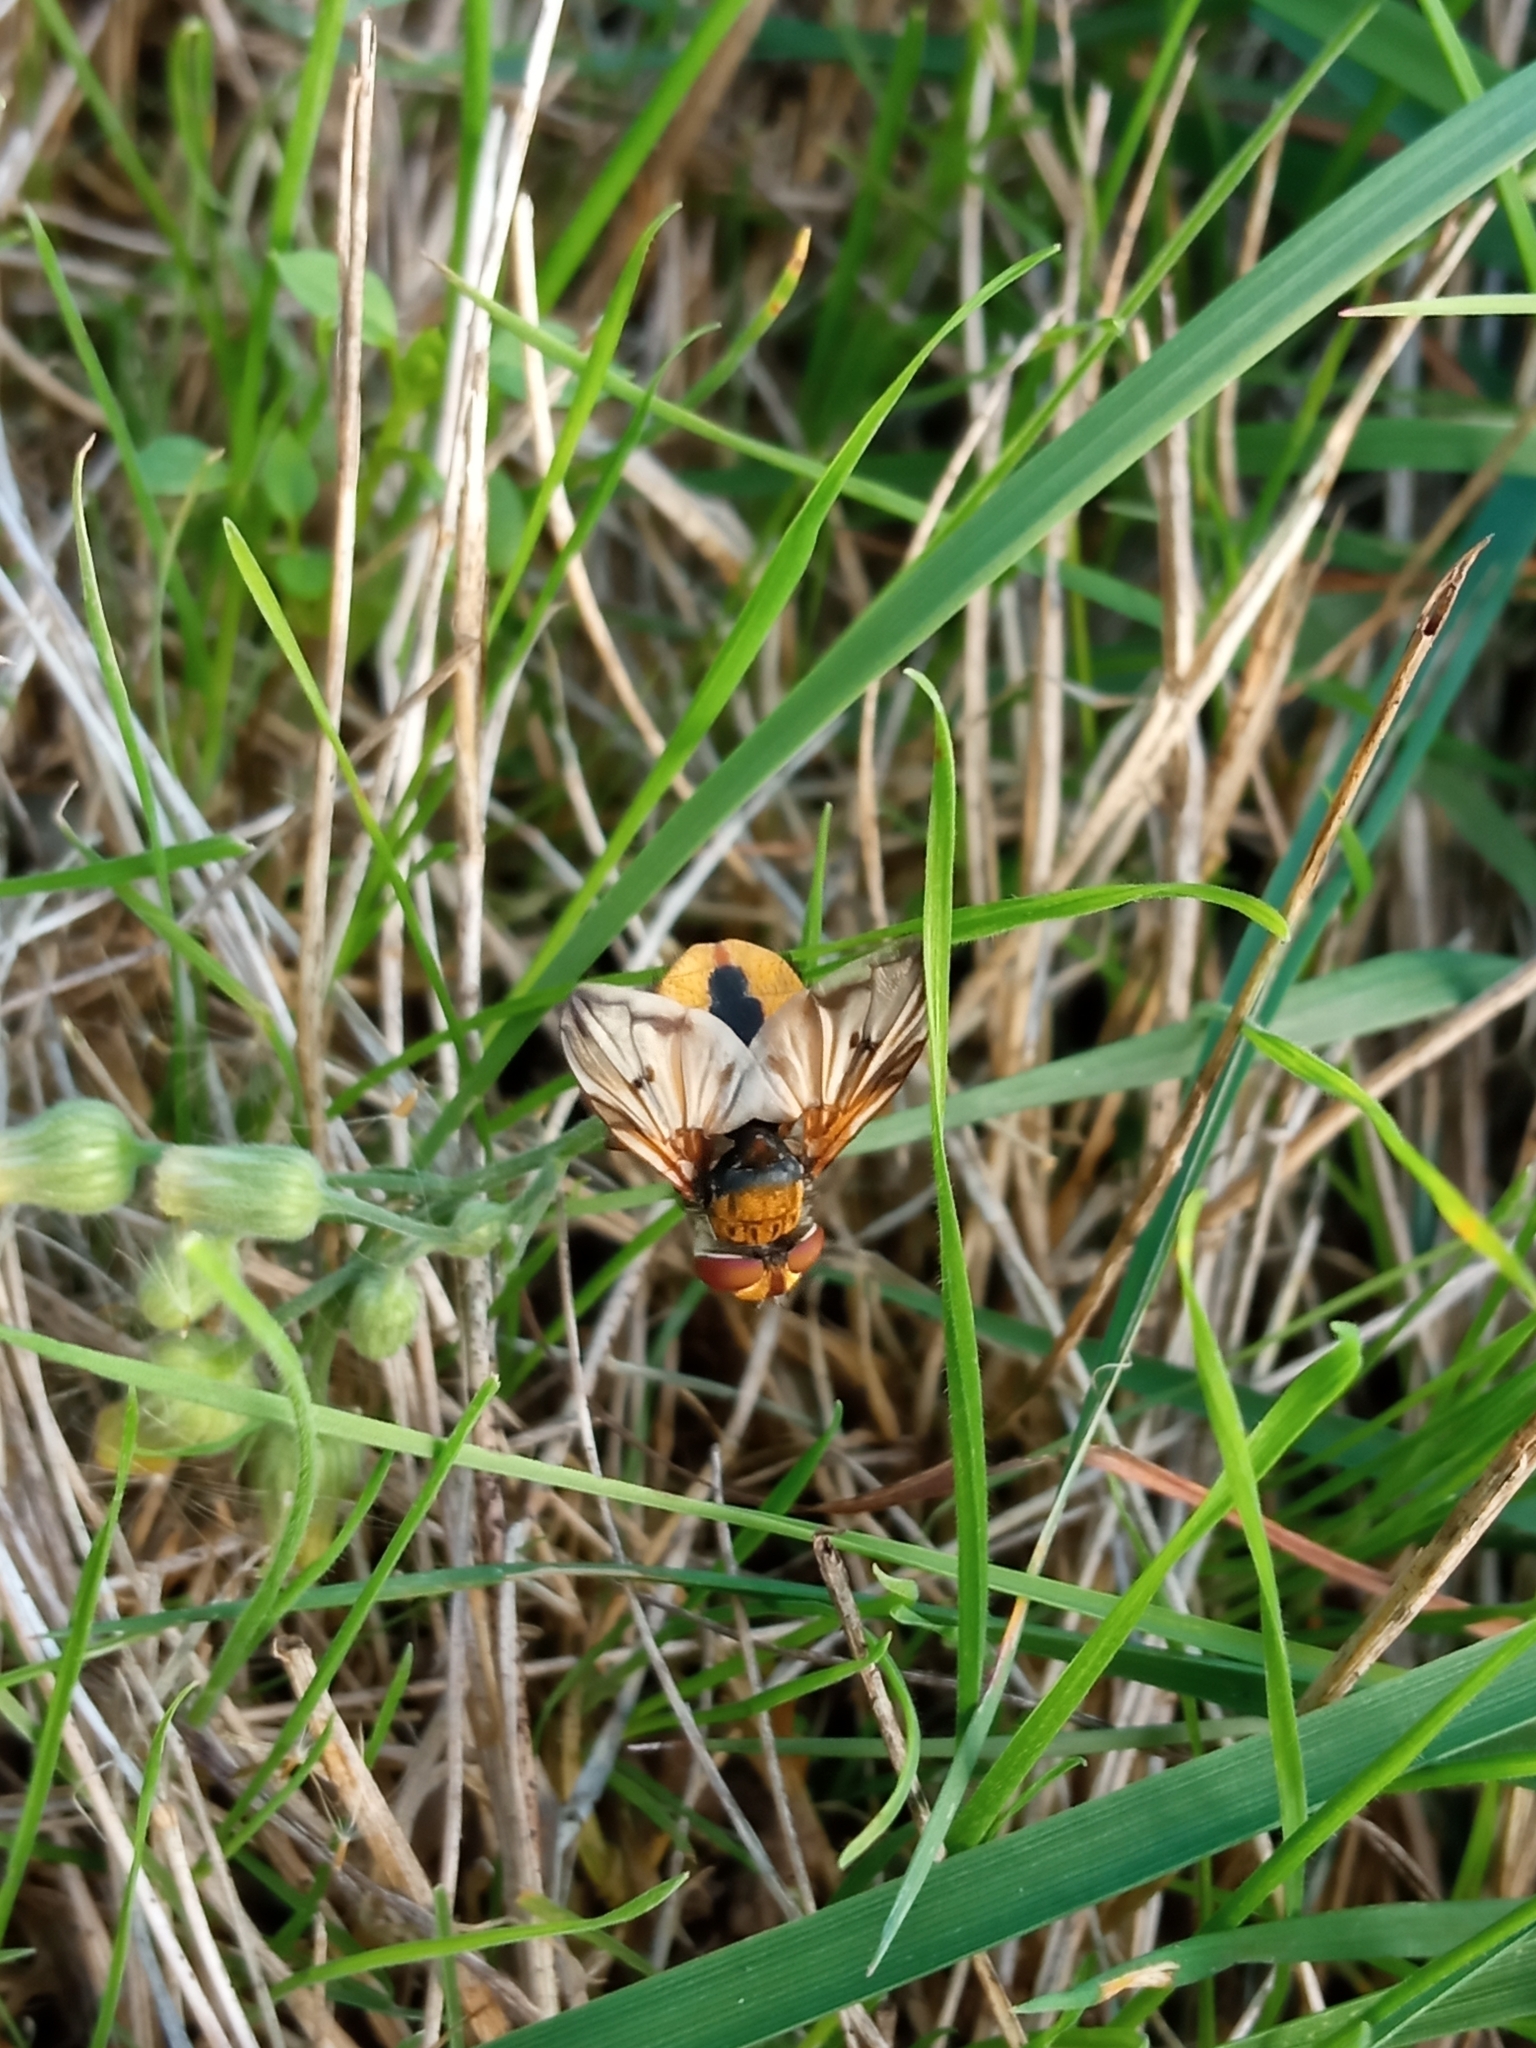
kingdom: Animalia
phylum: Arthropoda
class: Insecta
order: Diptera
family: Tachinidae
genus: Ectophasia
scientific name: Ectophasia crassipennis
